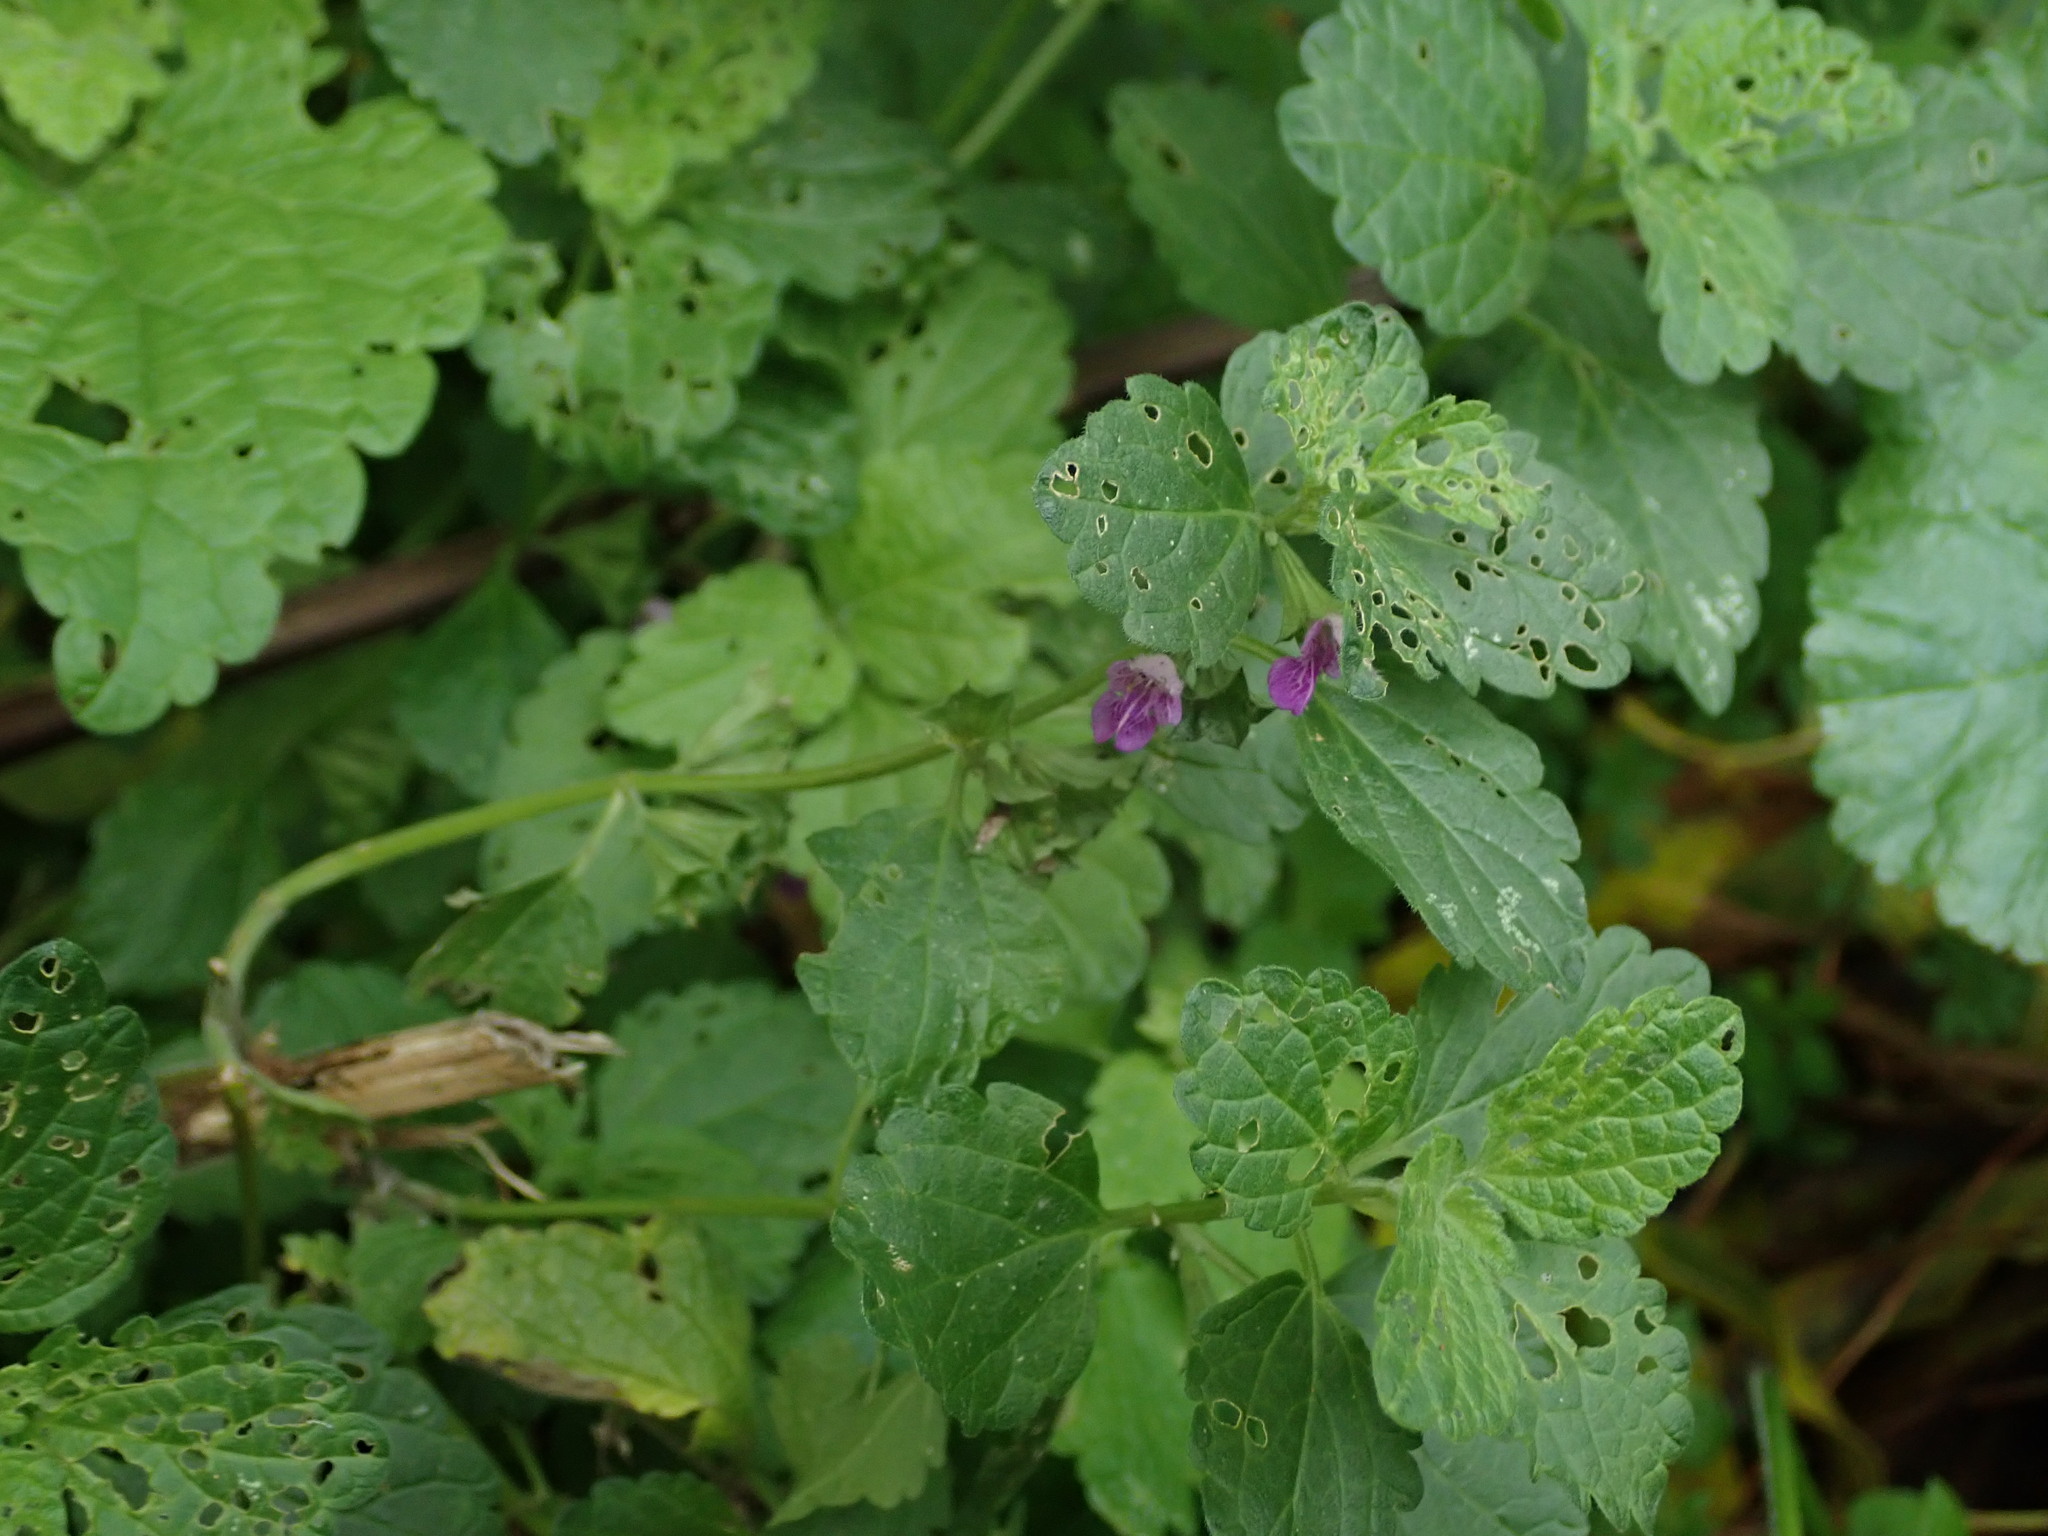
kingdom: Plantae
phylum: Tracheophyta
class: Magnoliopsida
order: Lamiales
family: Lamiaceae
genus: Ballota
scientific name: Ballota nigra
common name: Black horehound
